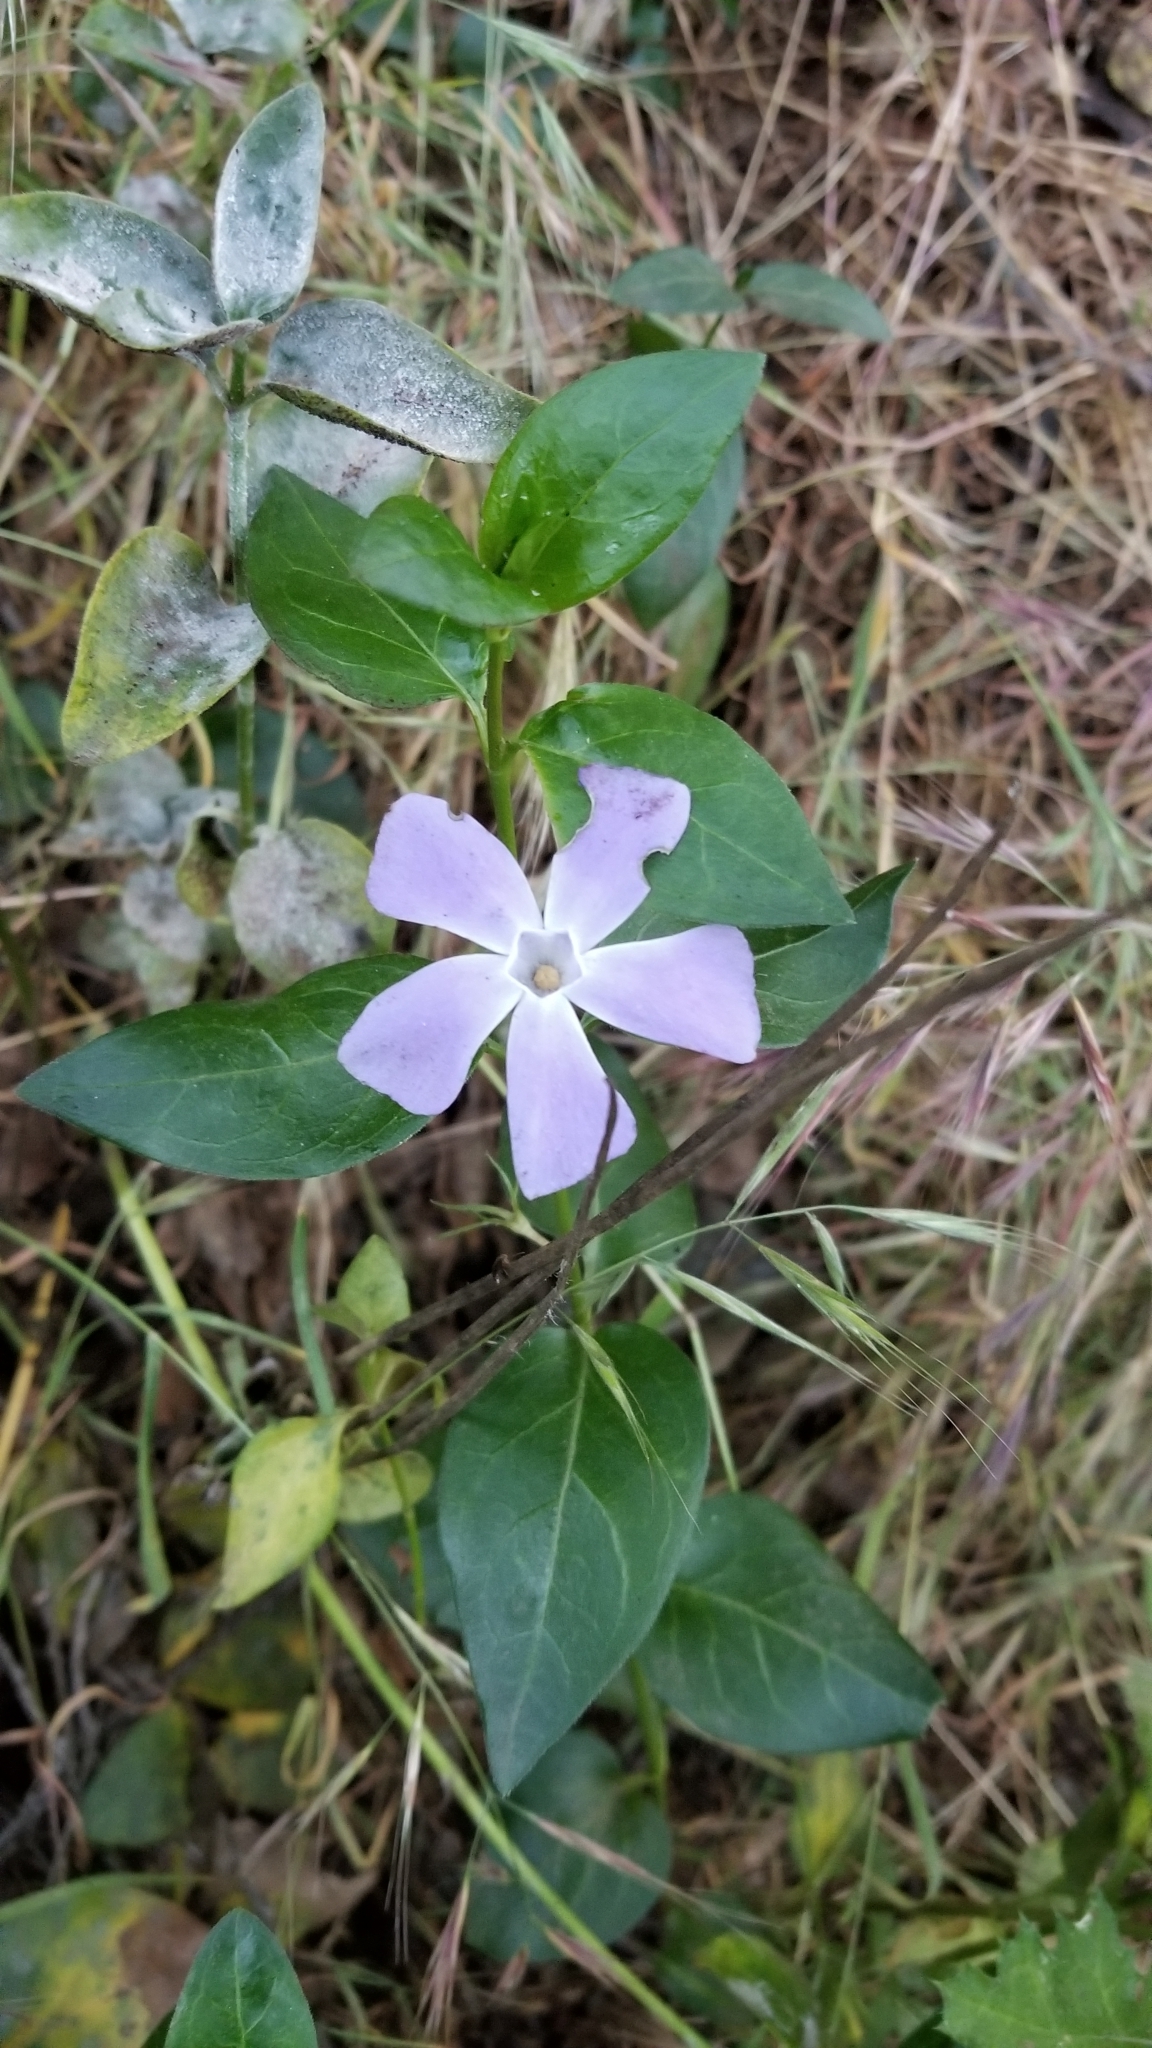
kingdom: Plantae
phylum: Tracheophyta
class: Magnoliopsida
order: Gentianales
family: Apocynaceae
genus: Vinca
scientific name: Vinca major
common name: Greater periwinkle
